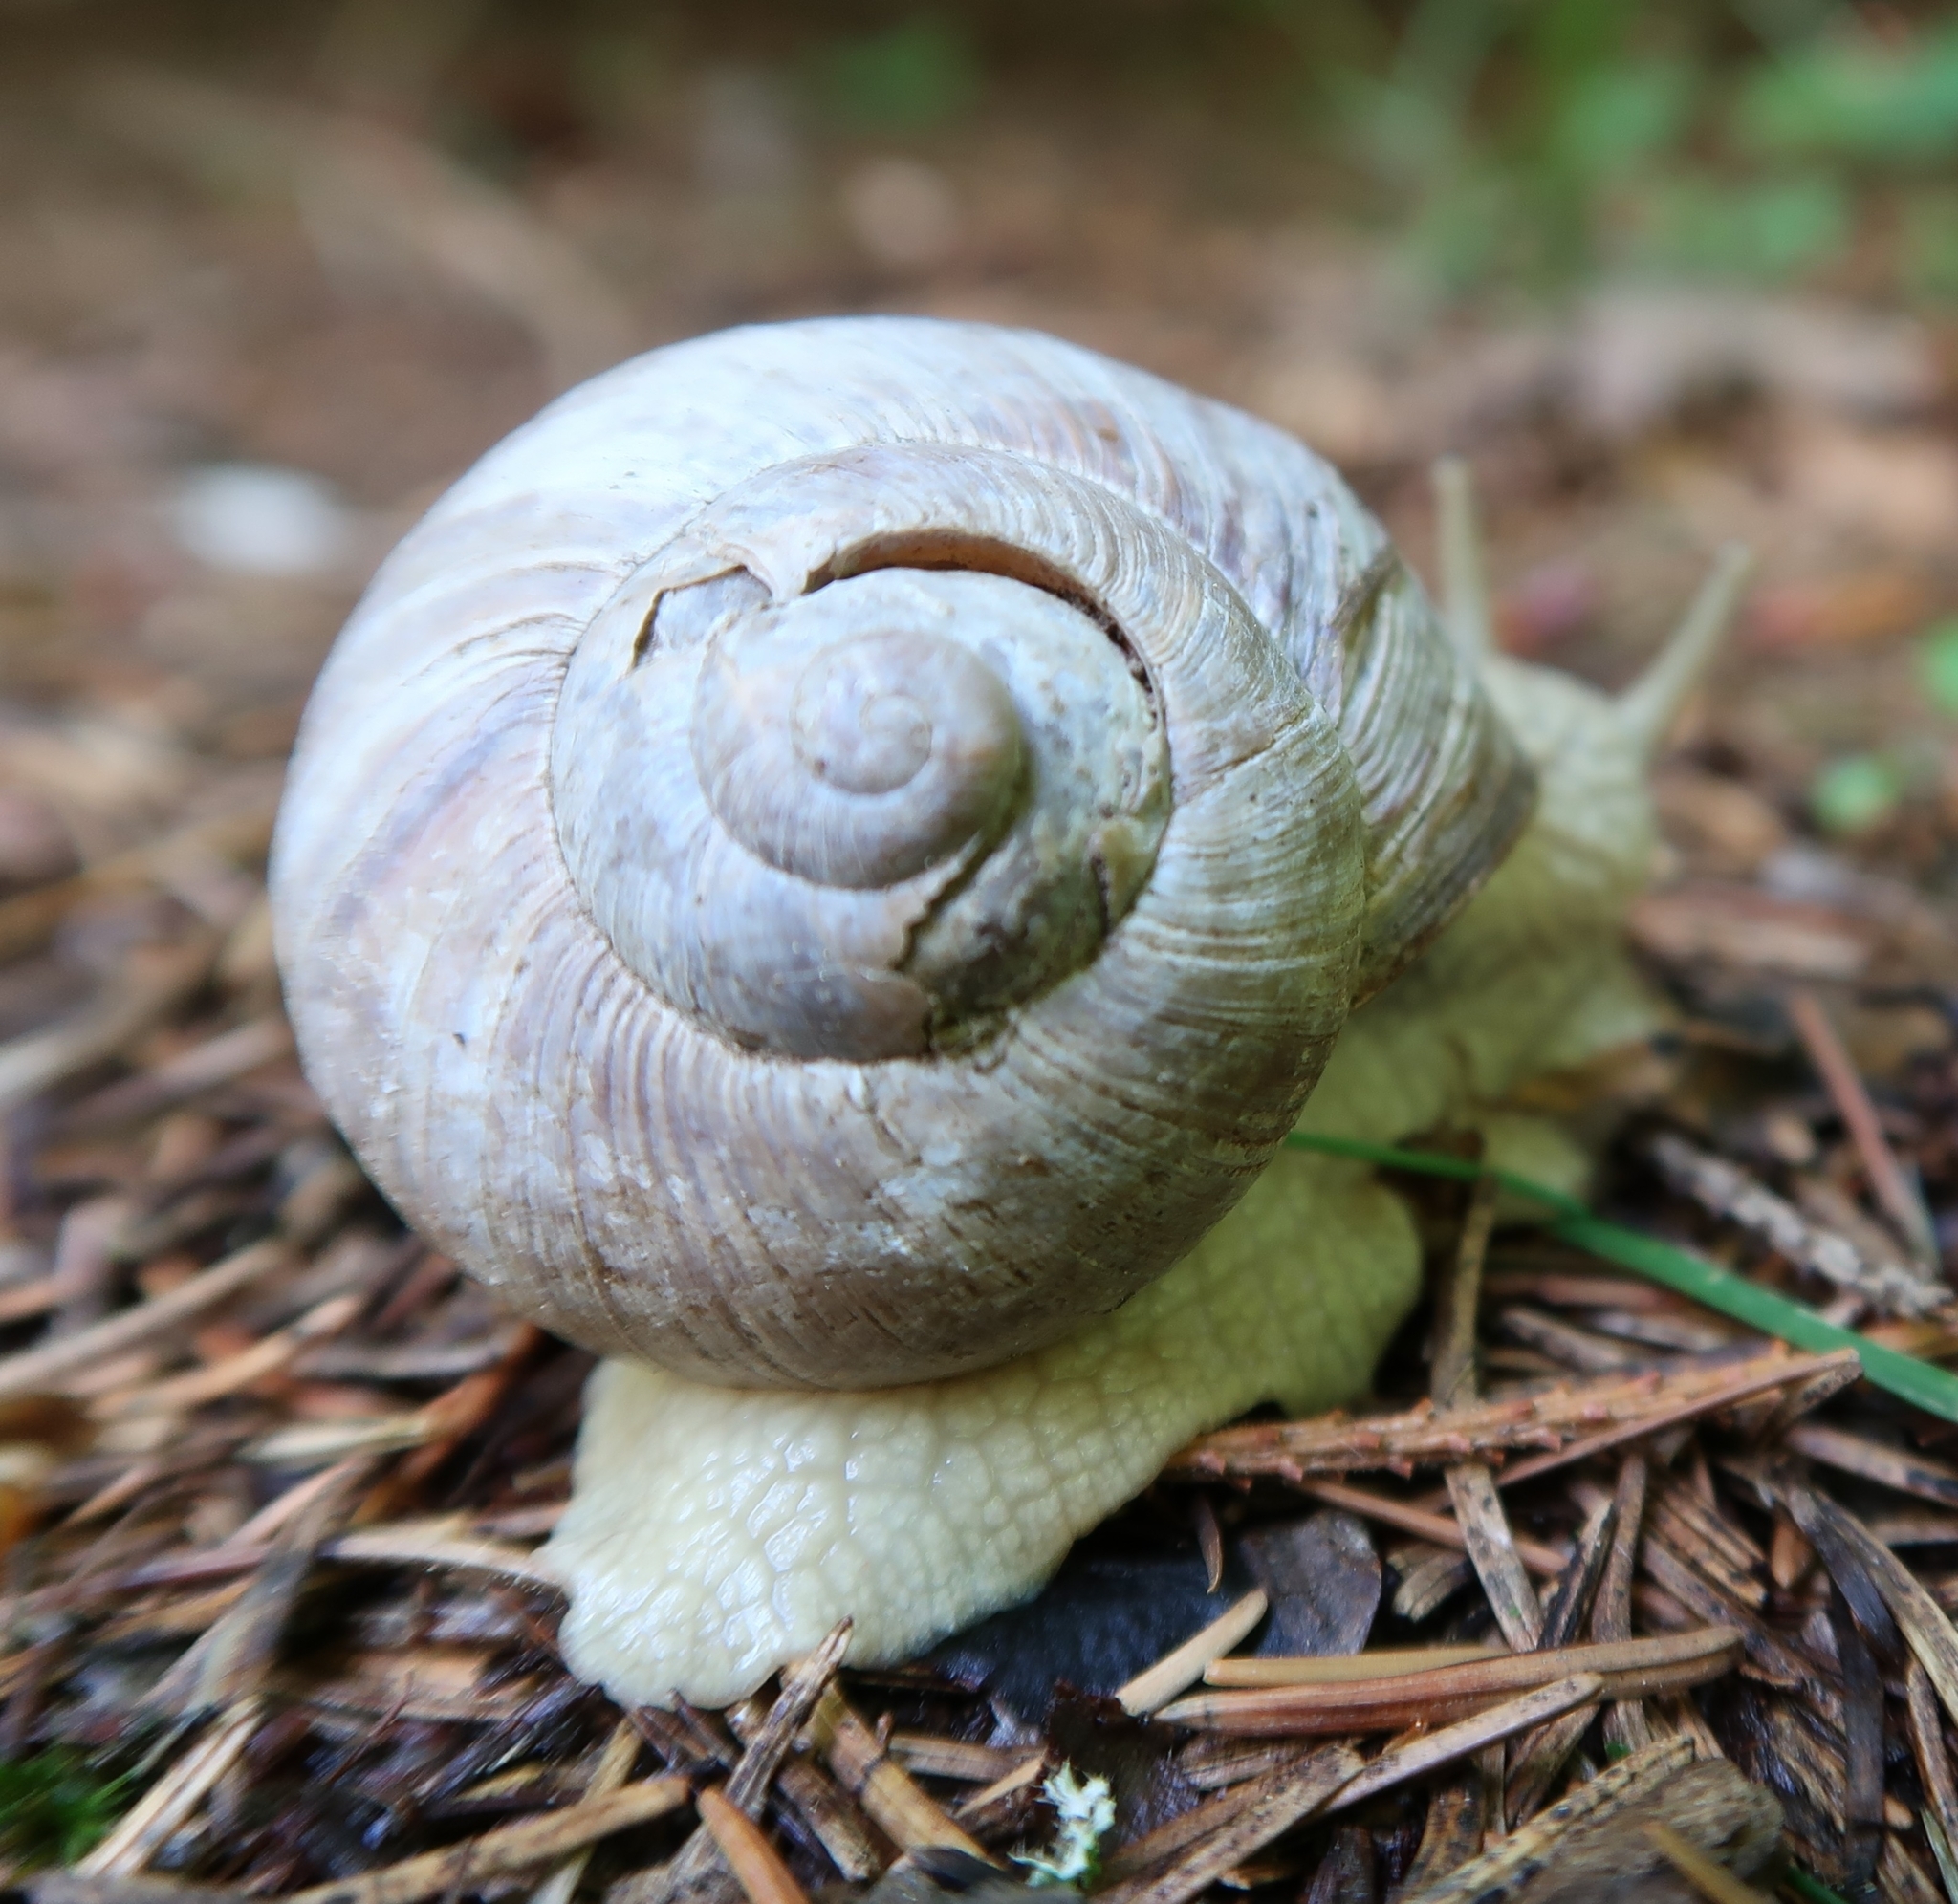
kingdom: Animalia
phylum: Mollusca
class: Gastropoda
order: Stylommatophora
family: Helicidae
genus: Helix
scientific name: Helix pomatia
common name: Roman snail
